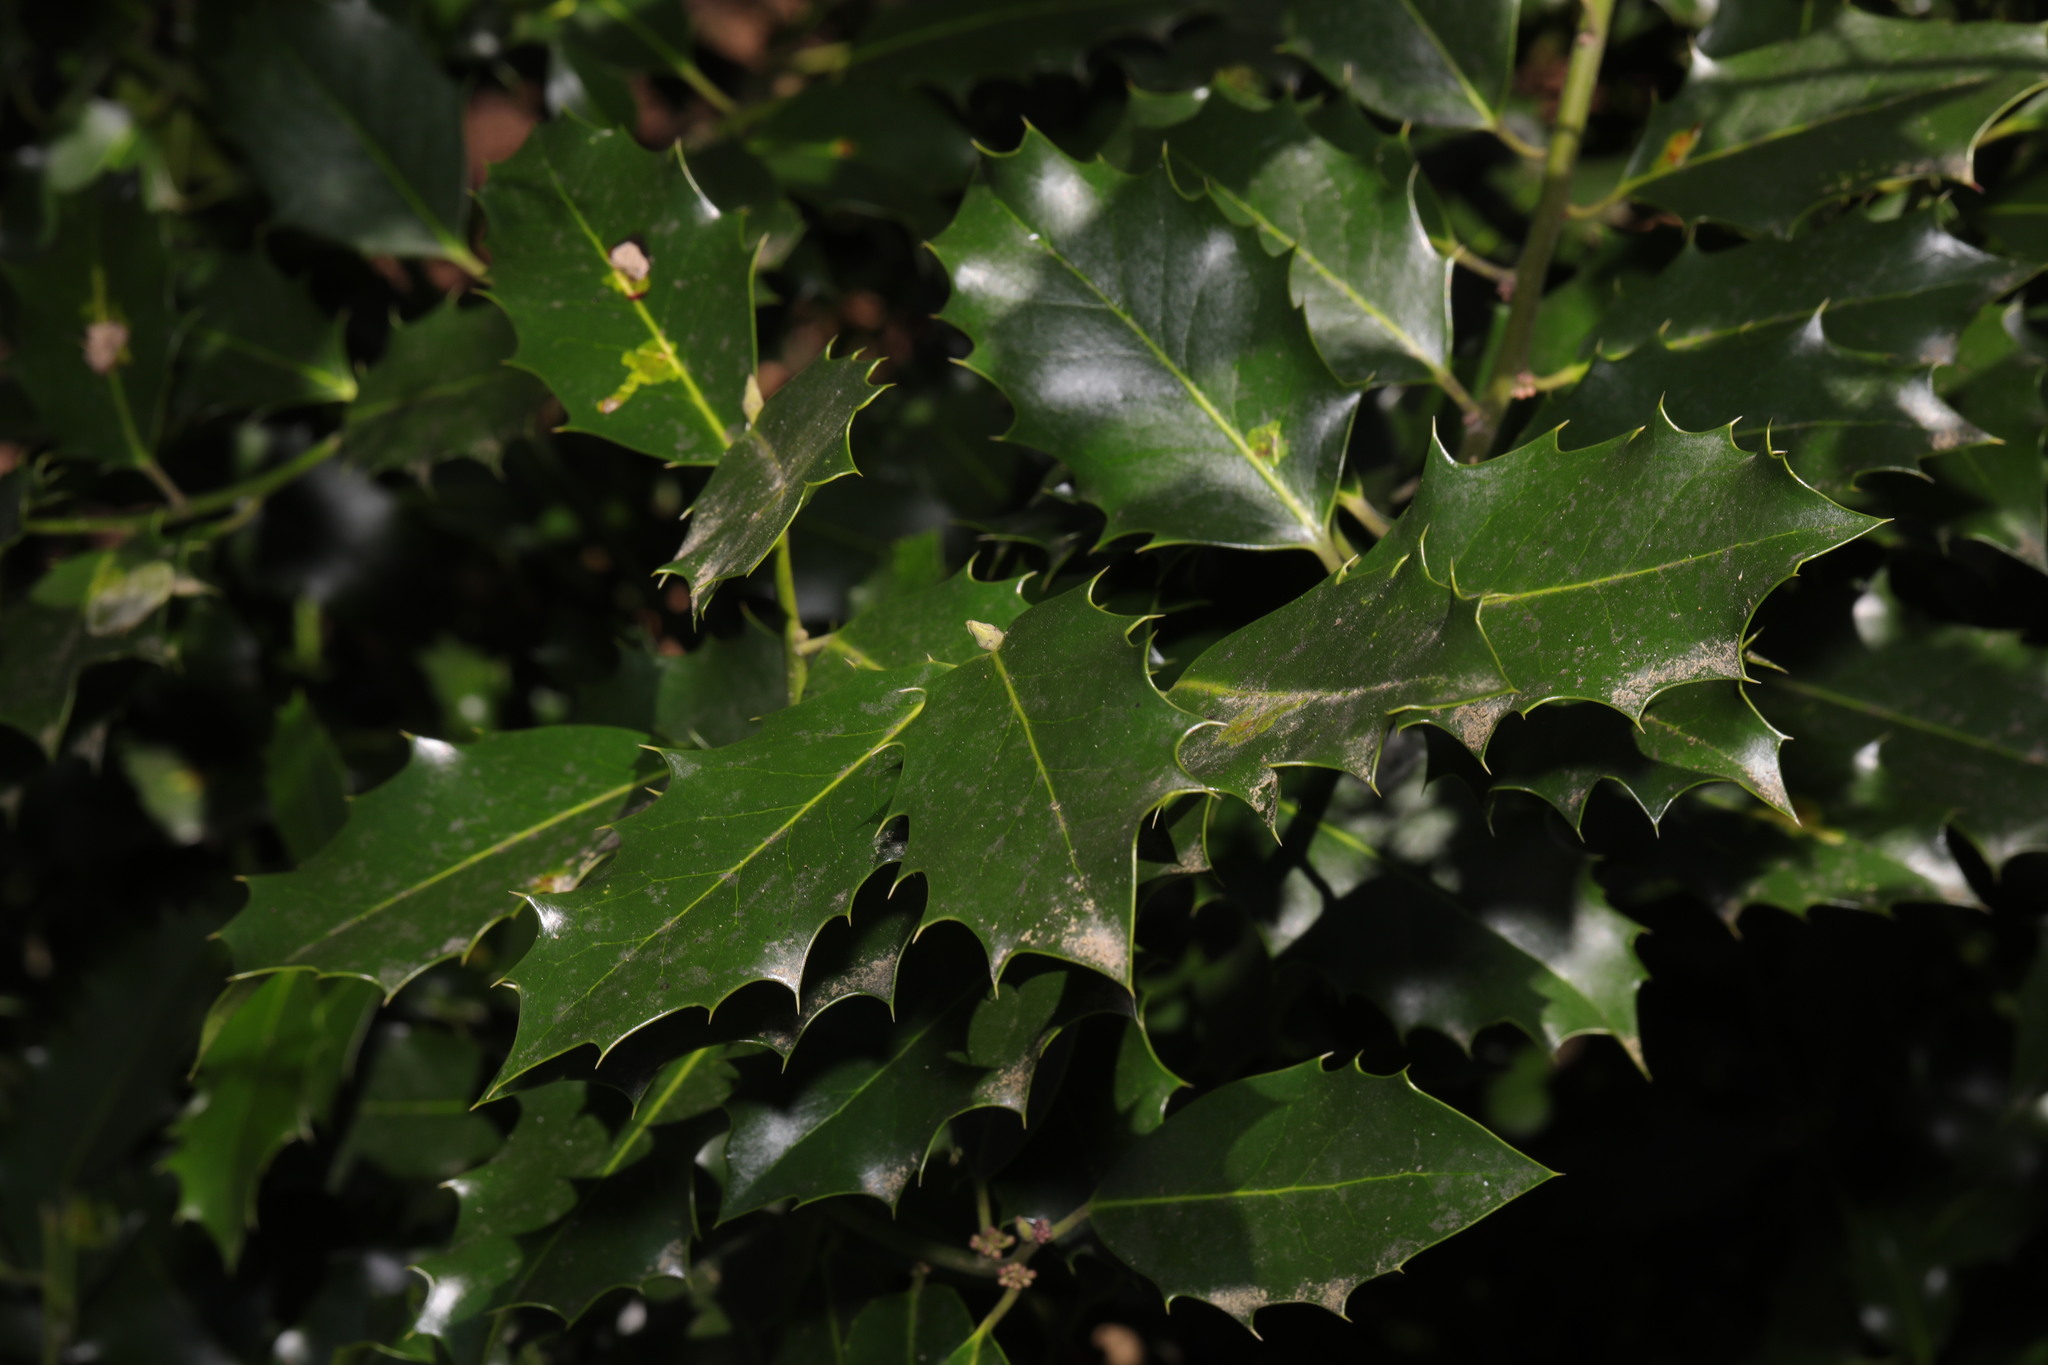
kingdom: Plantae
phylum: Tracheophyta
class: Magnoliopsida
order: Aquifoliales
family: Aquifoliaceae
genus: Ilex
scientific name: Ilex aquifolium
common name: English holly
